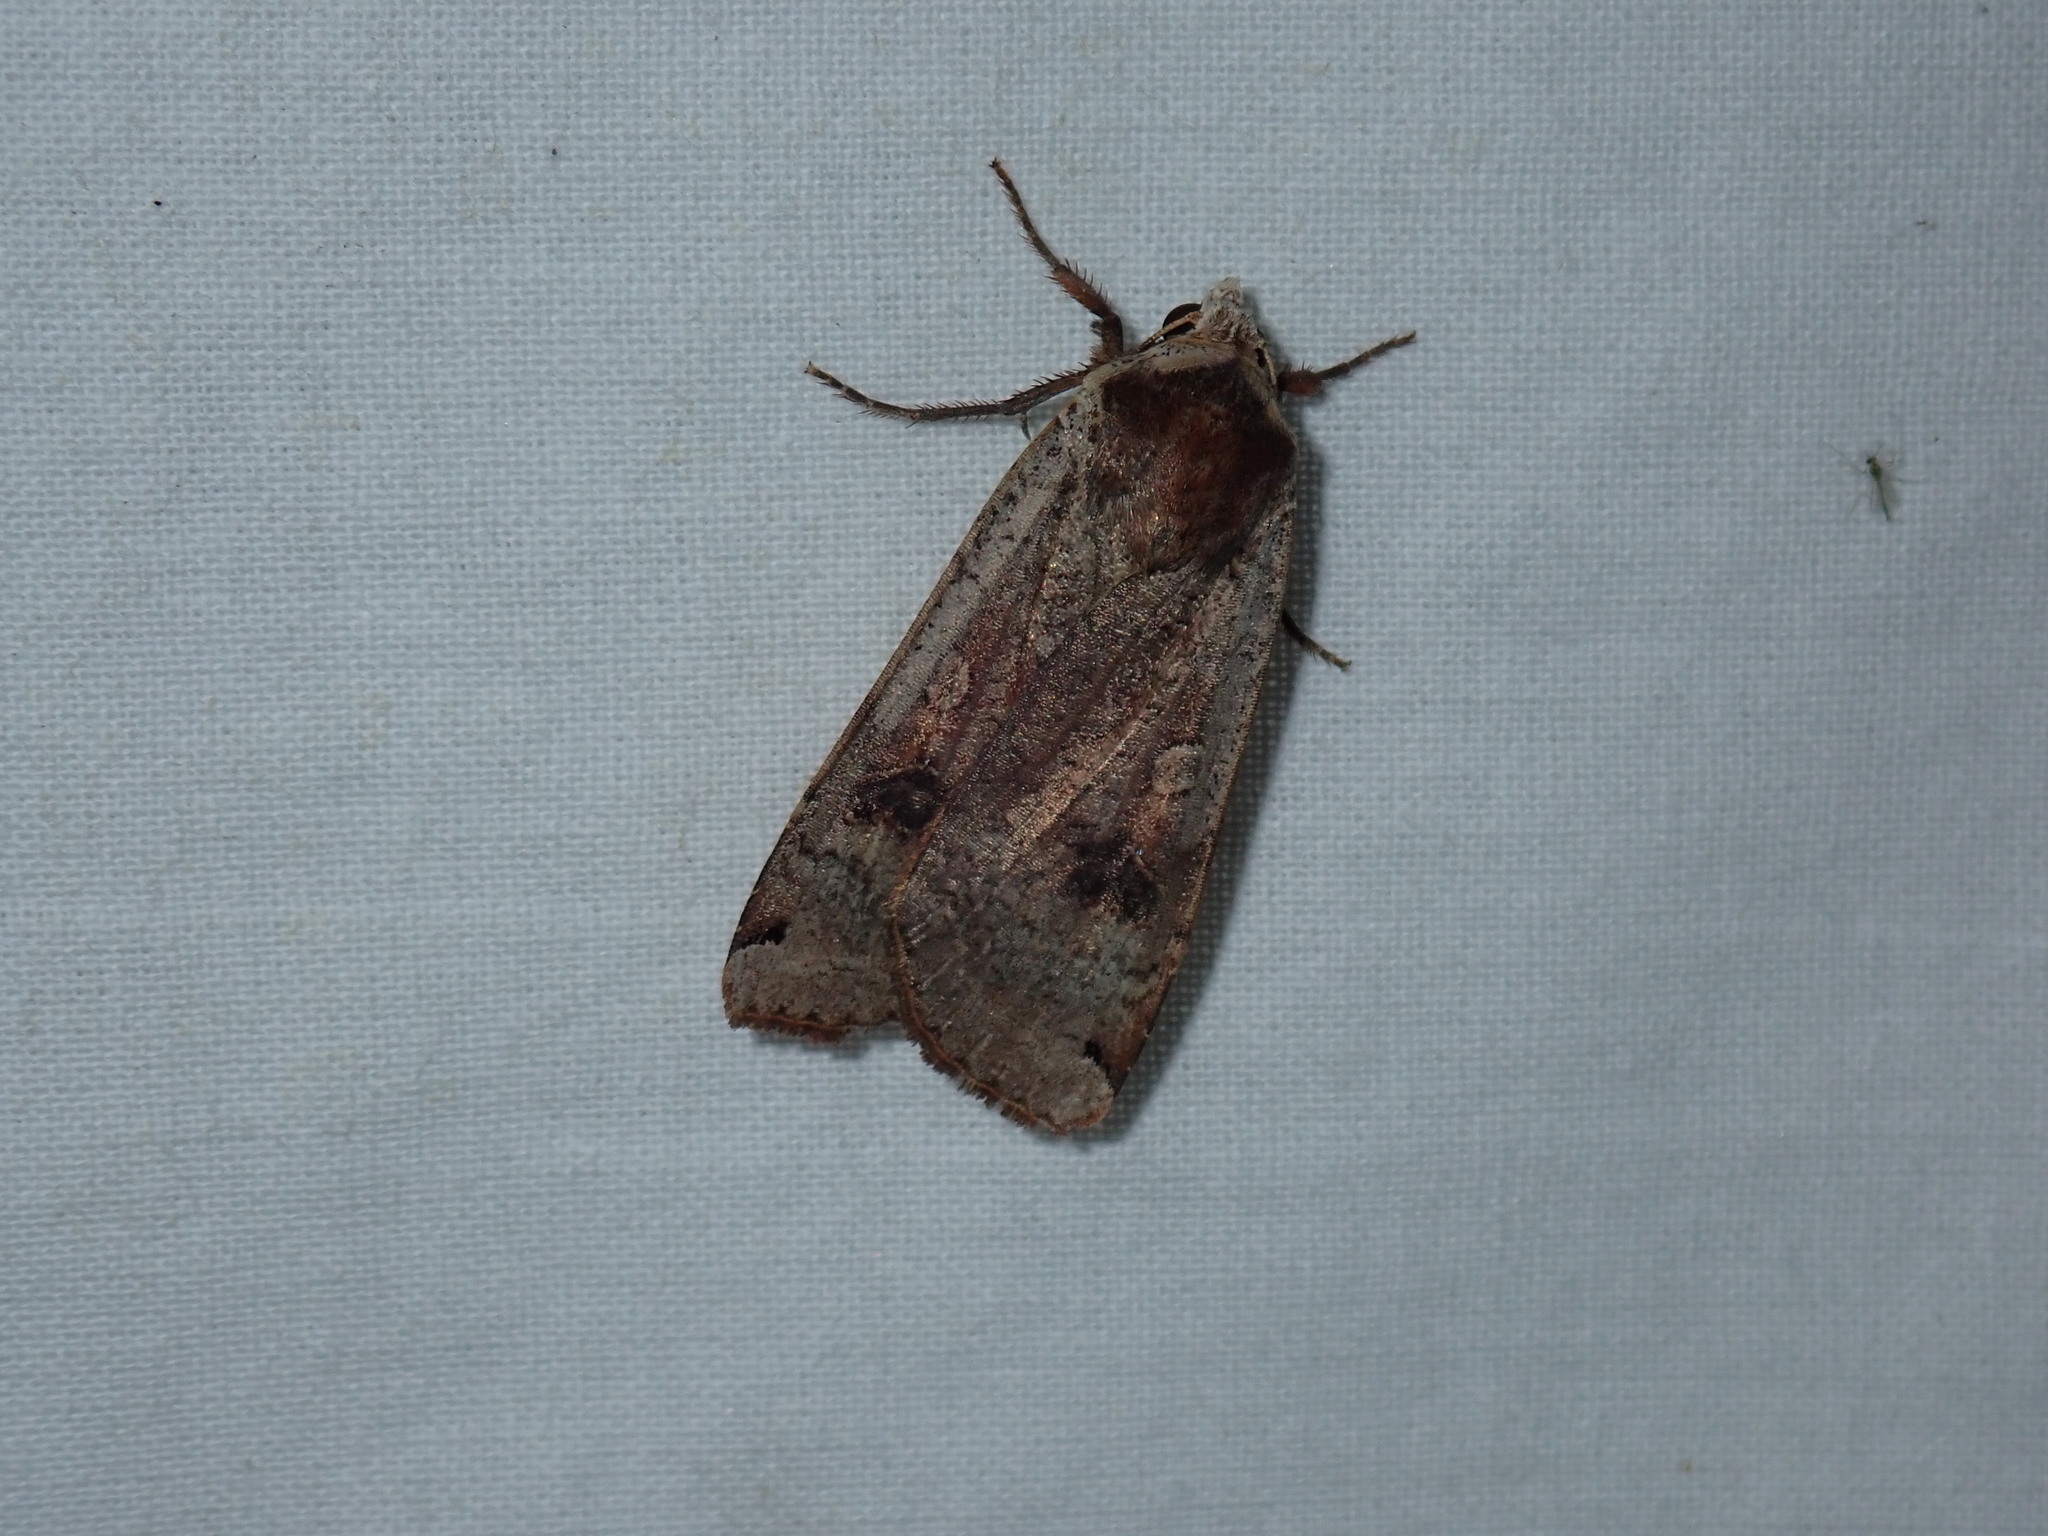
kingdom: Animalia
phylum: Arthropoda
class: Insecta
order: Lepidoptera
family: Noctuidae
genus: Noctua
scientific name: Noctua pronuba
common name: Large yellow underwing
